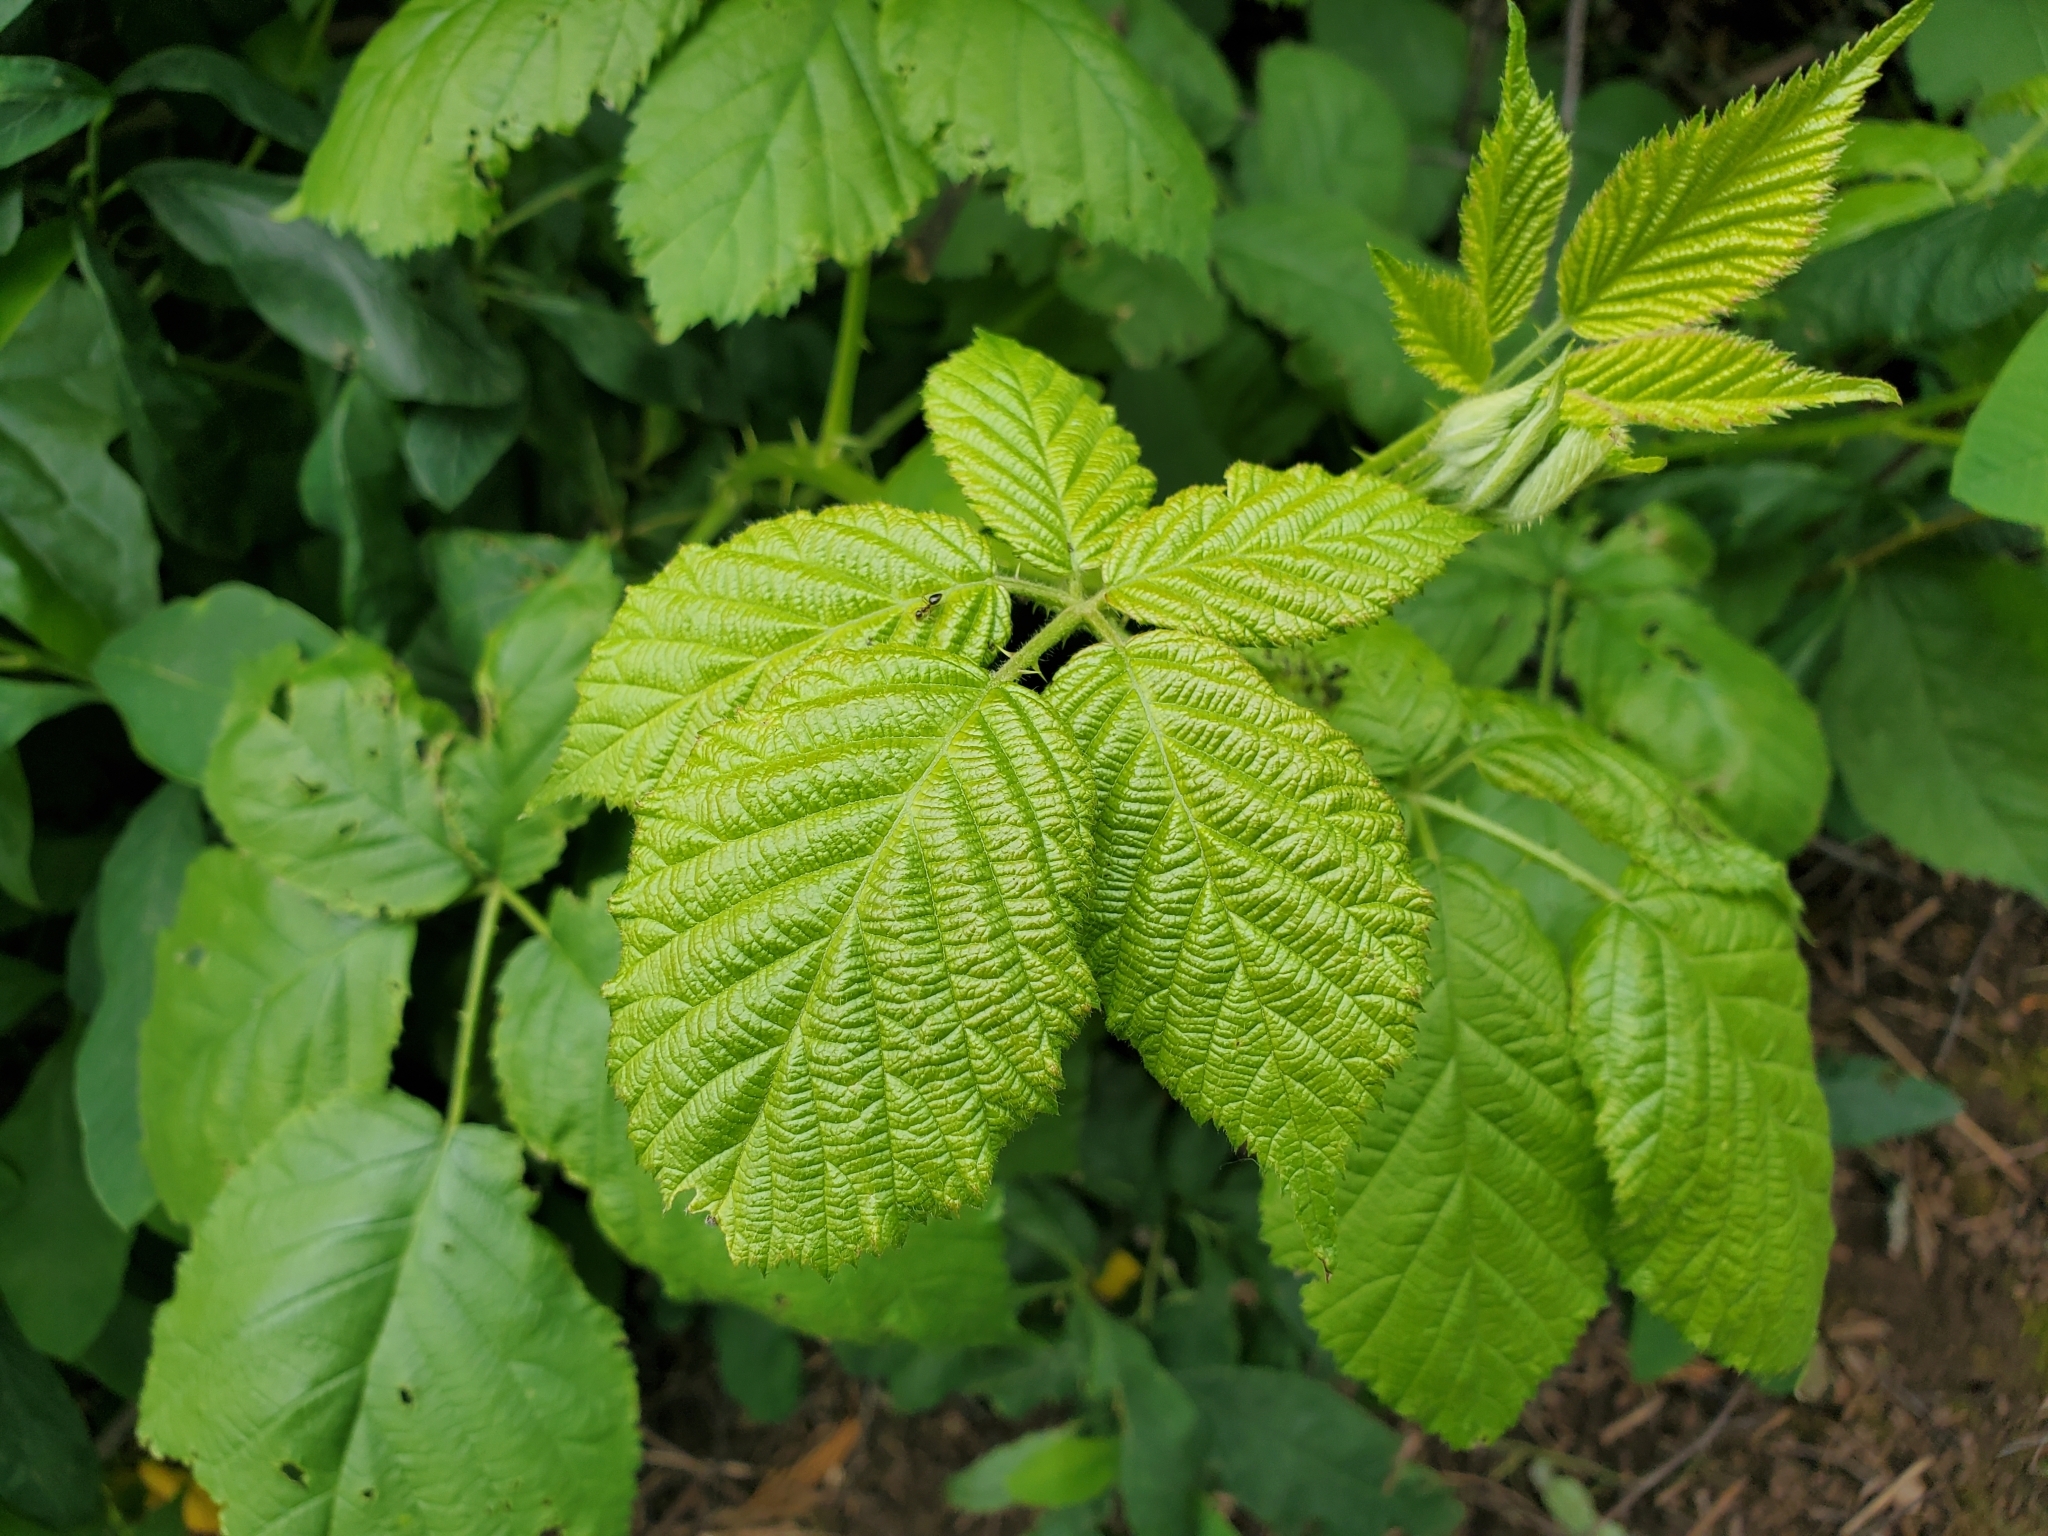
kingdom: Plantae
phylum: Tracheophyta
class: Magnoliopsida
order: Rosales
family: Rosaceae
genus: Rubus
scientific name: Rubus bifrons
